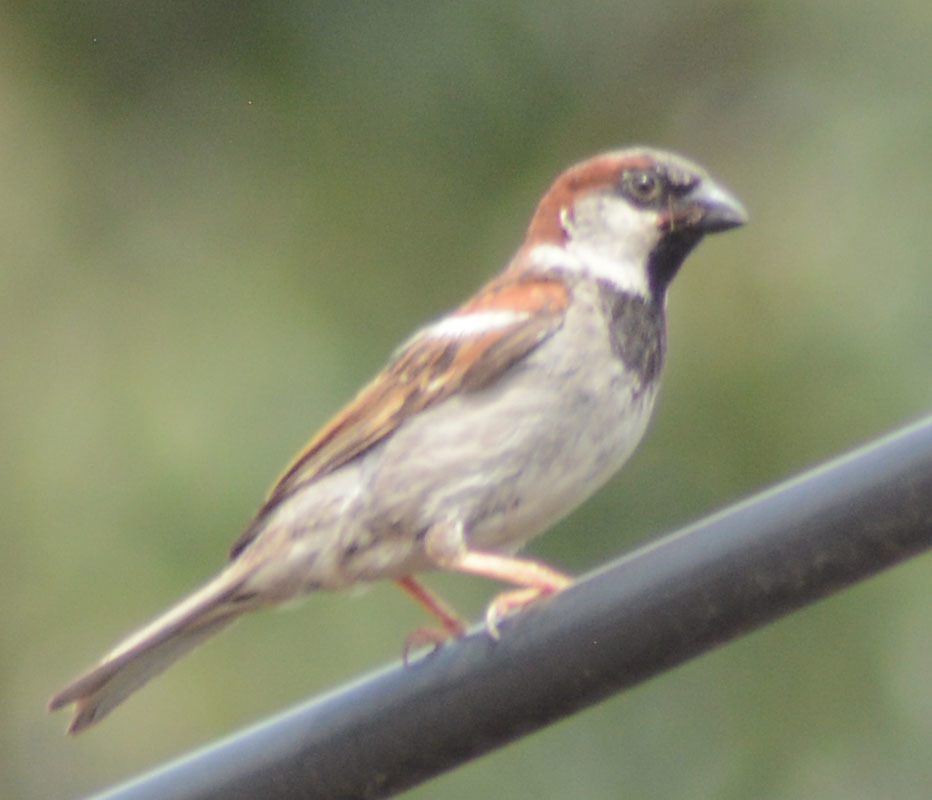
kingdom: Animalia
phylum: Chordata
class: Aves
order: Passeriformes
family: Passeridae
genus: Passer
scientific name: Passer domesticus
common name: House sparrow
